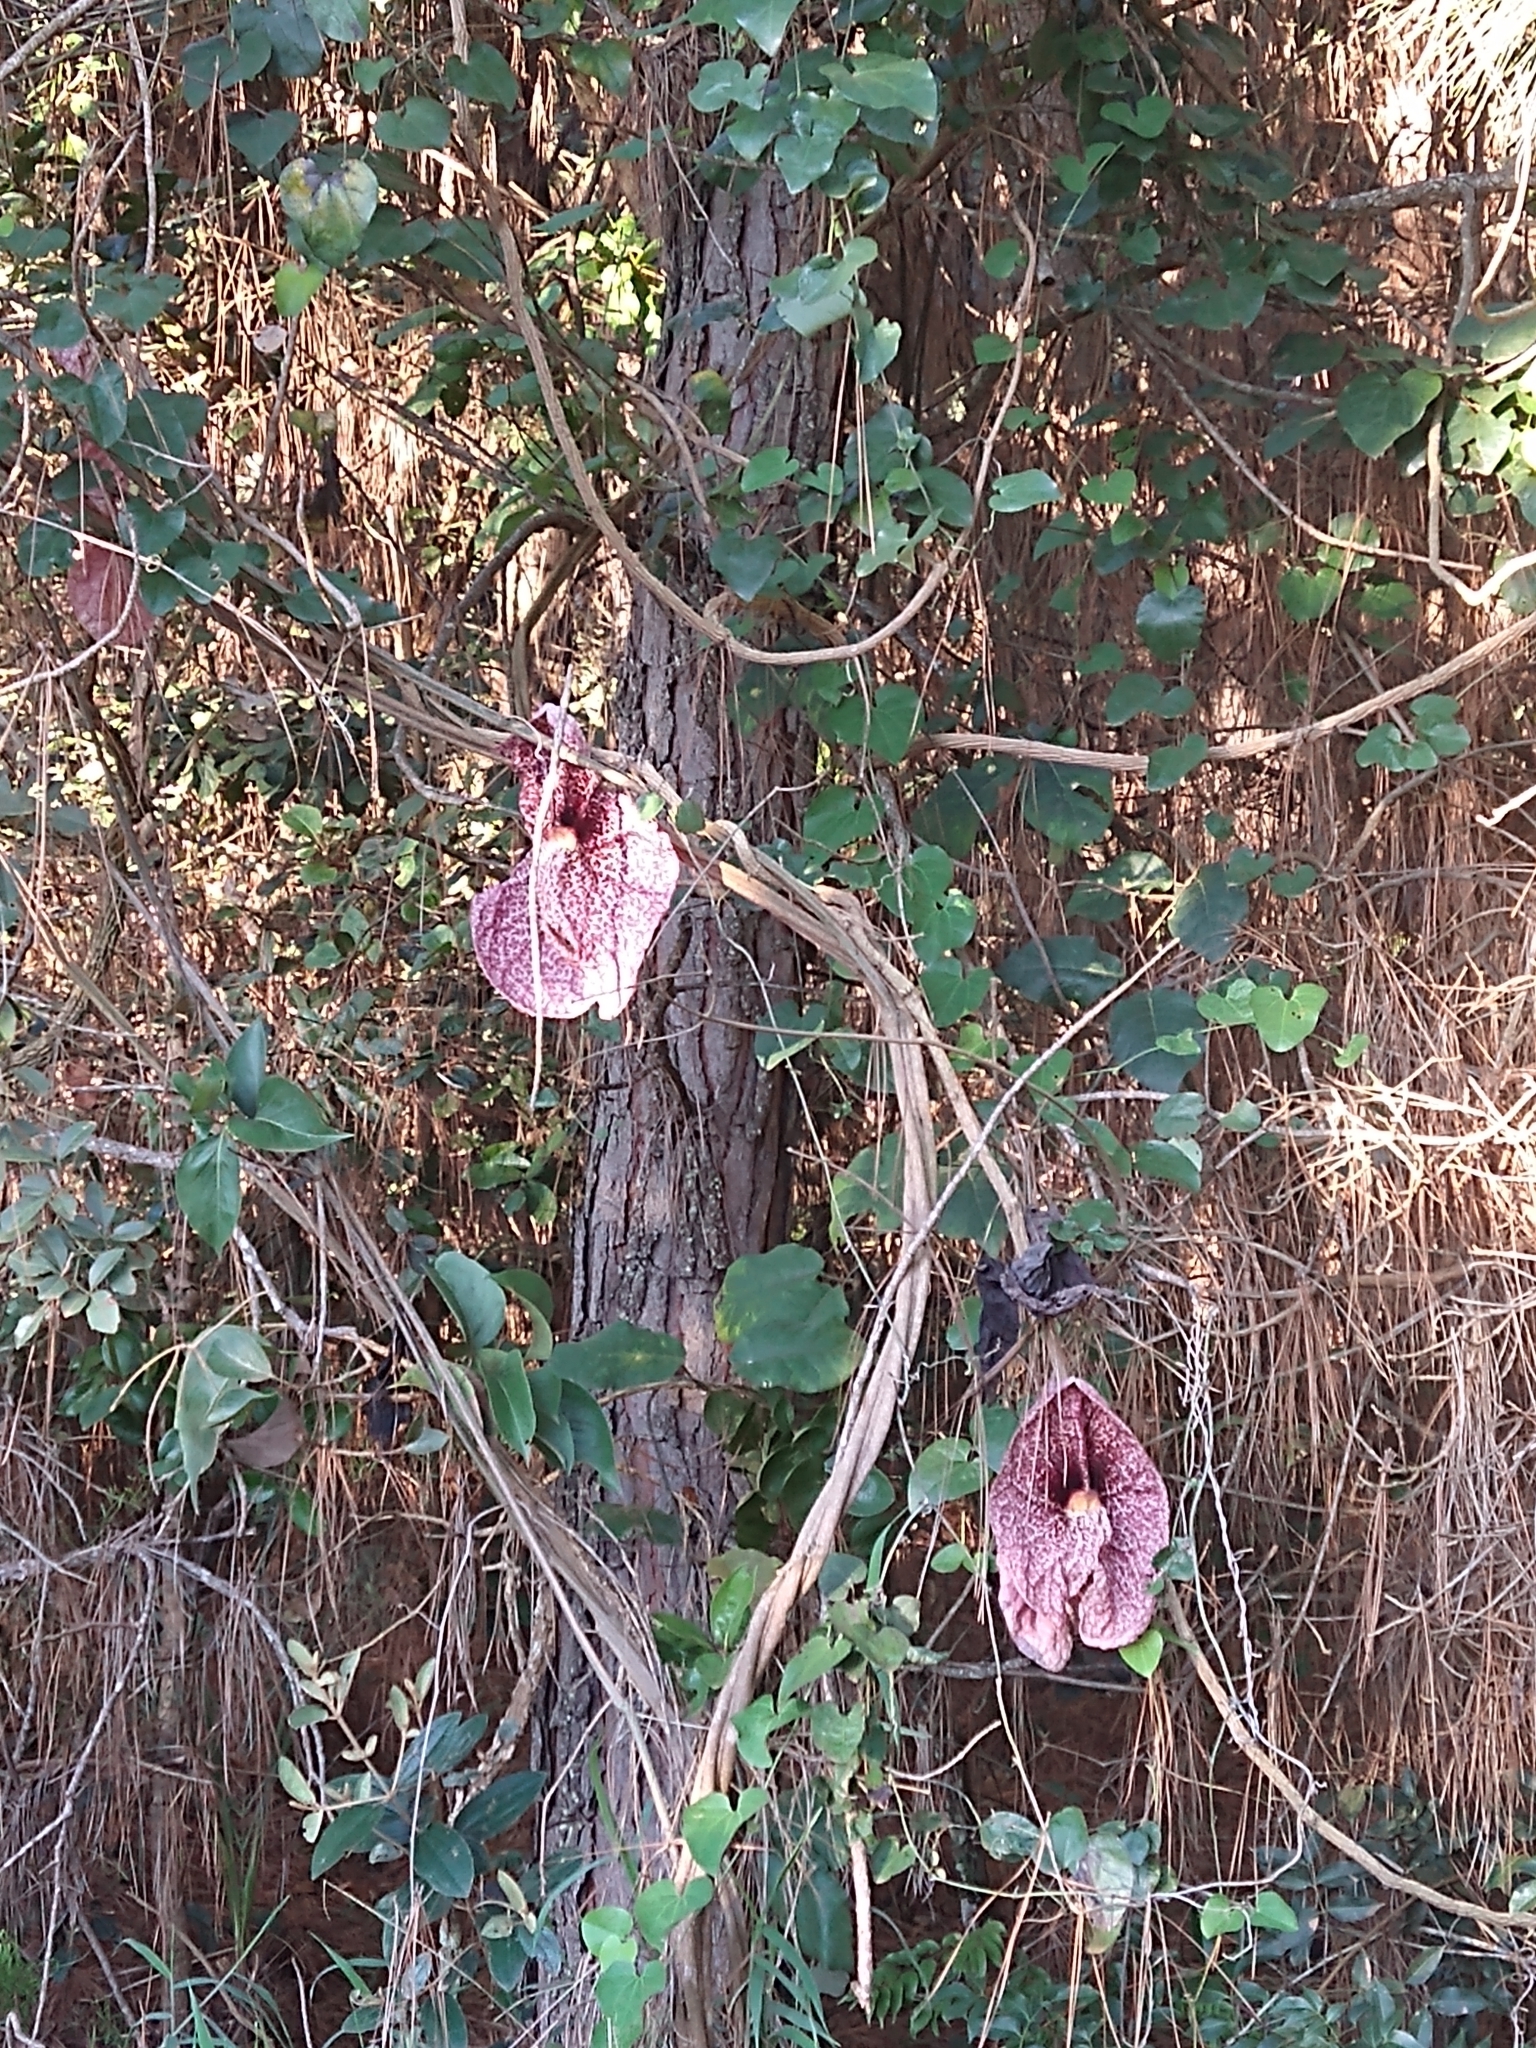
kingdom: Plantae
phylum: Tracheophyta
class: Magnoliopsida
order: Piperales
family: Aristolochiaceae
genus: Aristolochia
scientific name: Aristolochia gigantea
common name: Duckflower
